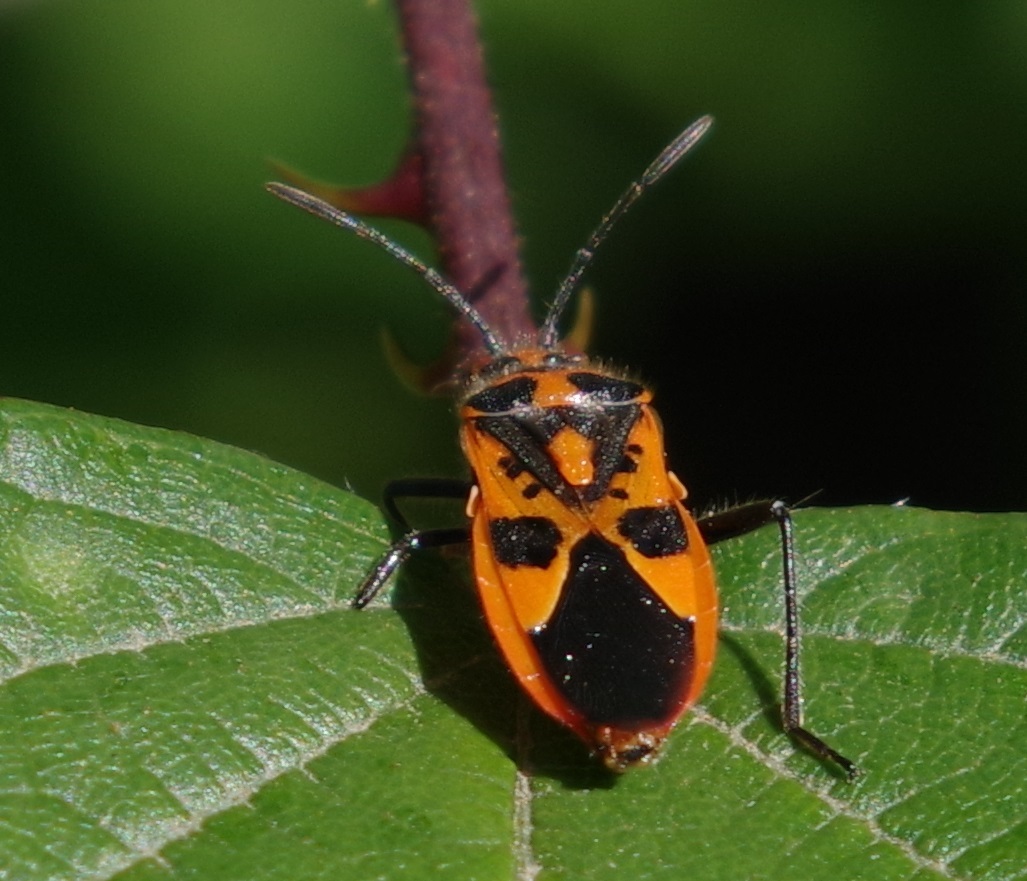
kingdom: Animalia
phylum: Arthropoda
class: Insecta
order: Hemiptera
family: Rhopalidae
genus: Corizus
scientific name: Corizus hyoscyami
